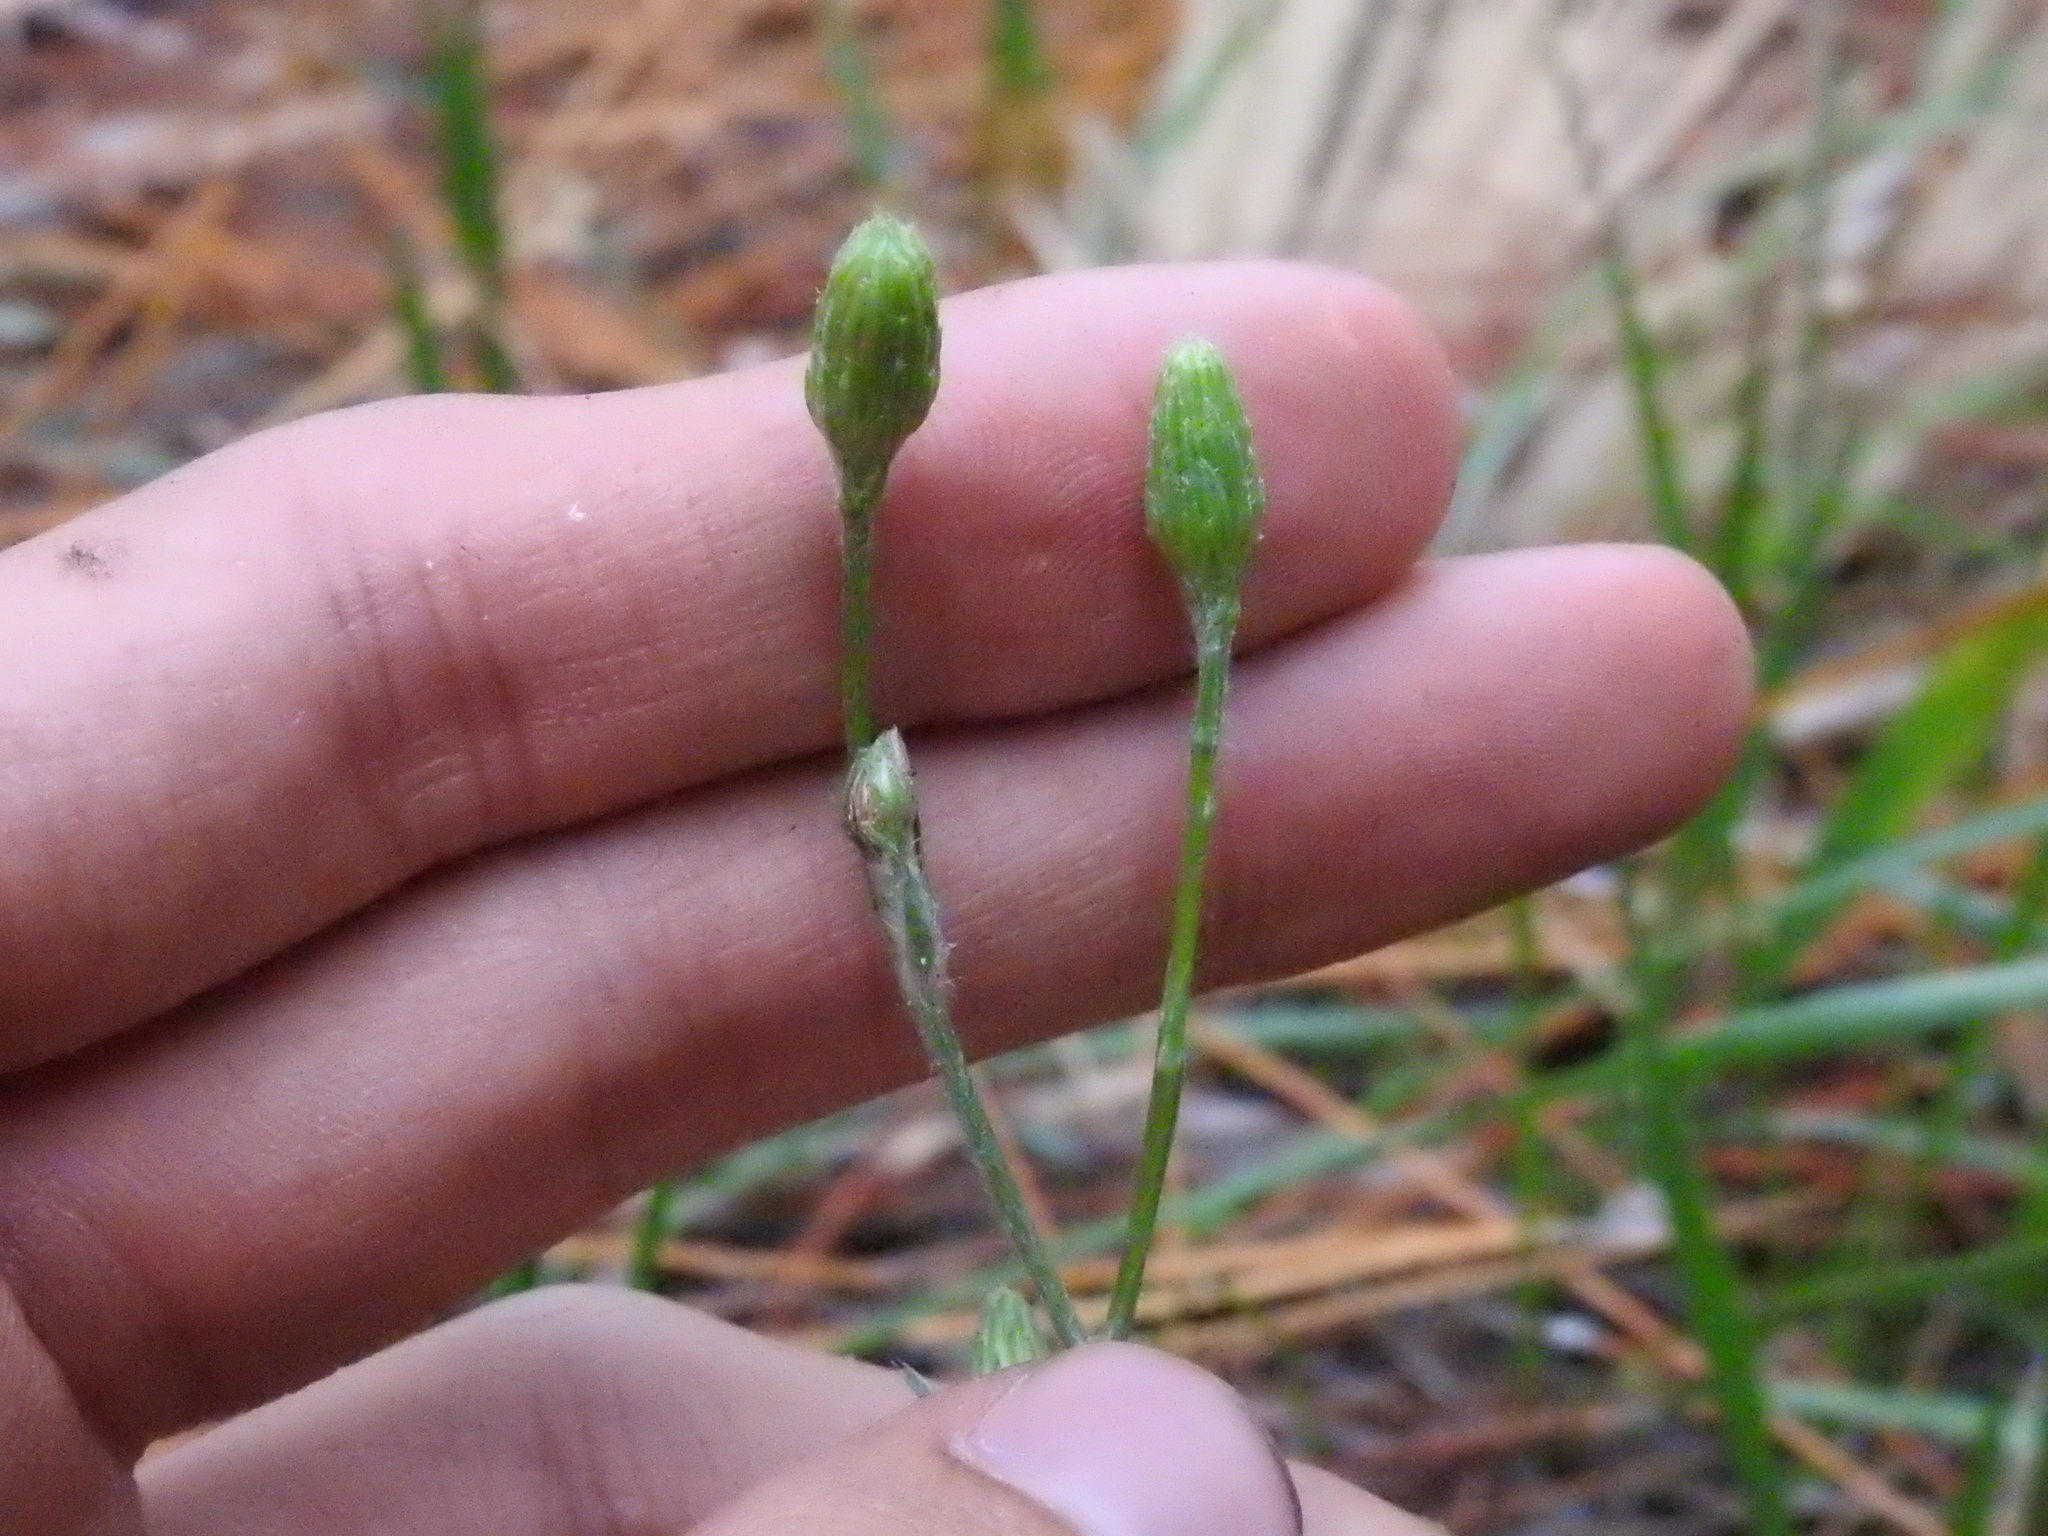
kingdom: Plantae
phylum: Tracheophyta
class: Magnoliopsida
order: Asterales
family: Asteraceae
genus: Pityopsis
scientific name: Pityopsis tracyi
